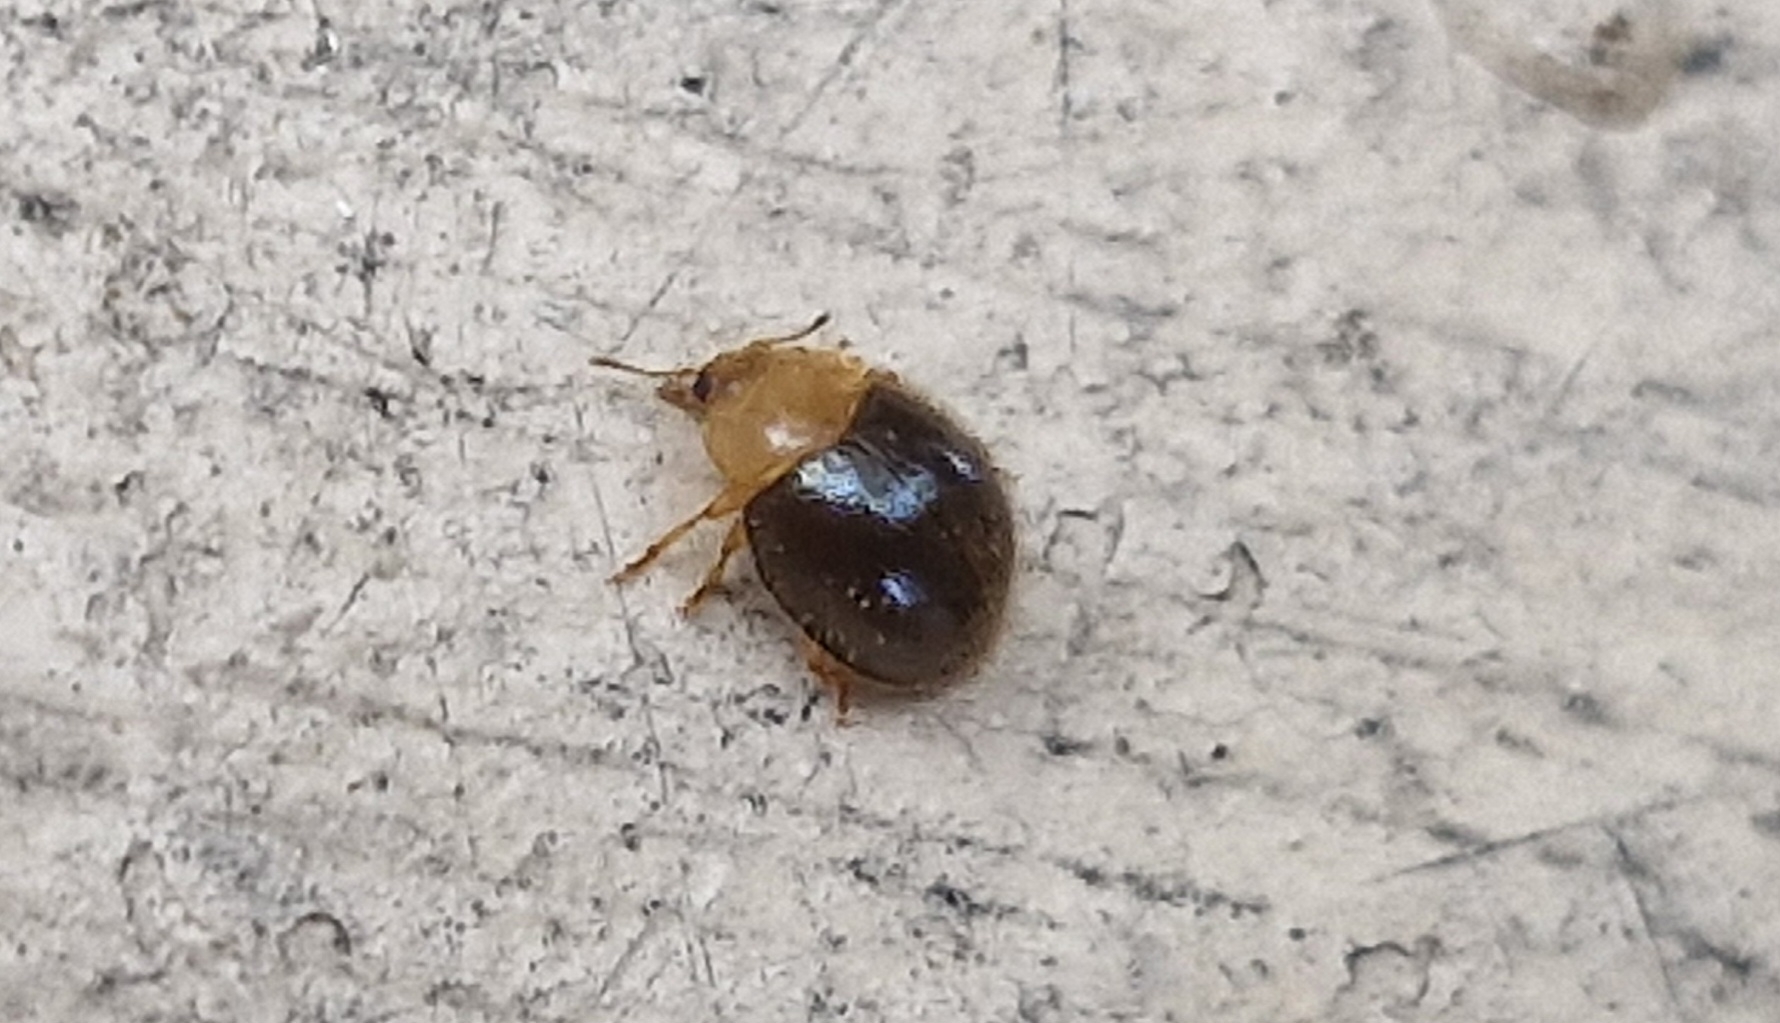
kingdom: Animalia
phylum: Arthropoda
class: Insecta
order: Coleoptera
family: Coccinellidae
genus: Adoxellus
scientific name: Adoxellus
